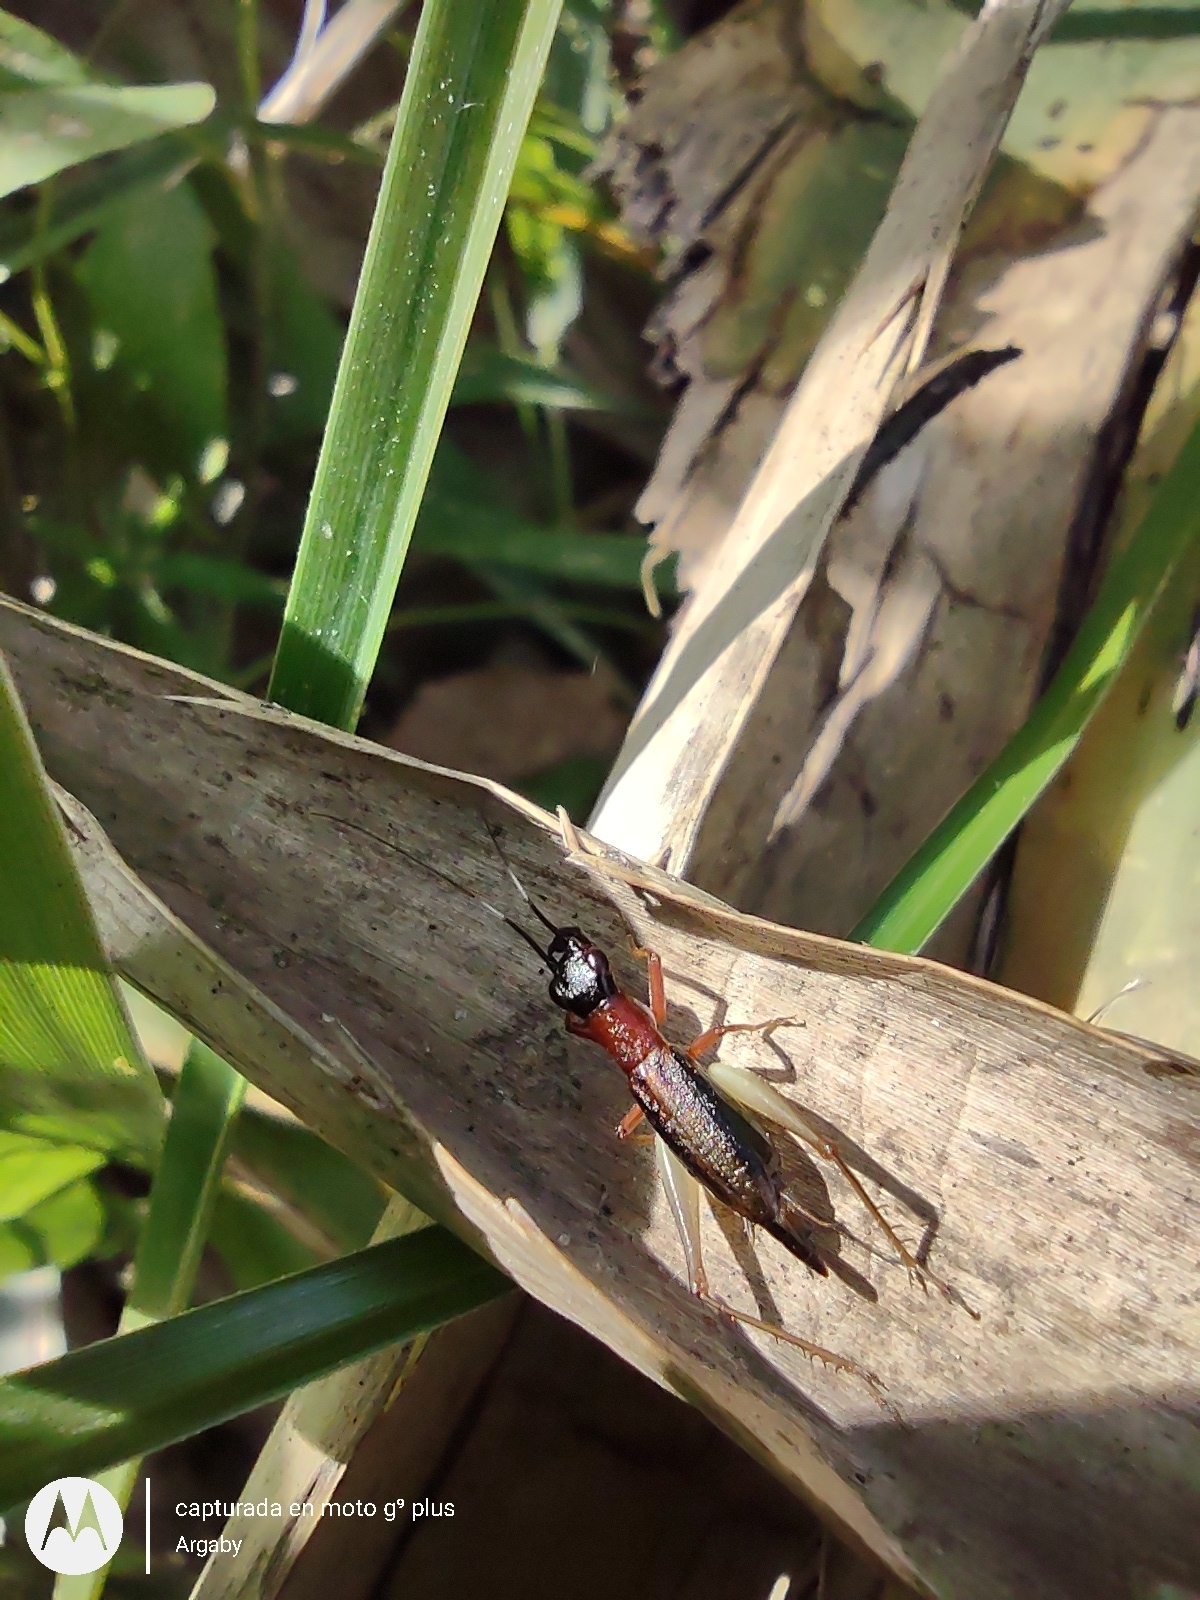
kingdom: Animalia
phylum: Arthropoda
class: Insecta
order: Orthoptera
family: Trigonidiidae
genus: Cranistus
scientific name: Cranistus colliurides
